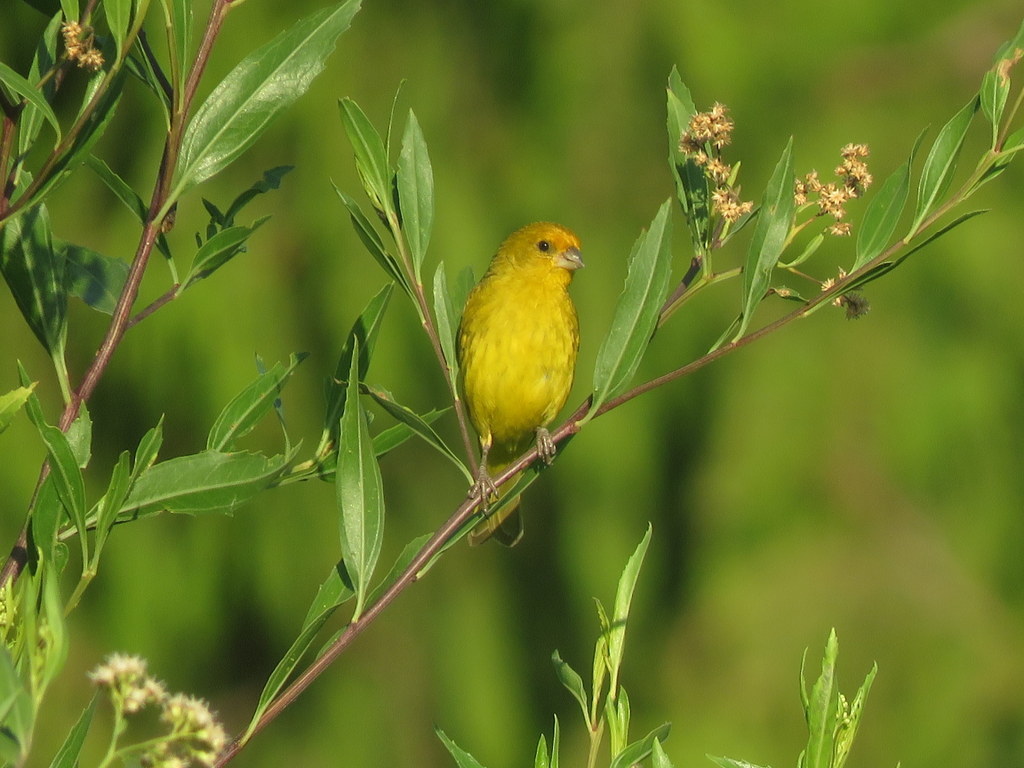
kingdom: Animalia
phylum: Chordata
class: Aves
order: Passeriformes
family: Thraupidae
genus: Sicalis
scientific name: Sicalis flaveola
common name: Saffron finch
